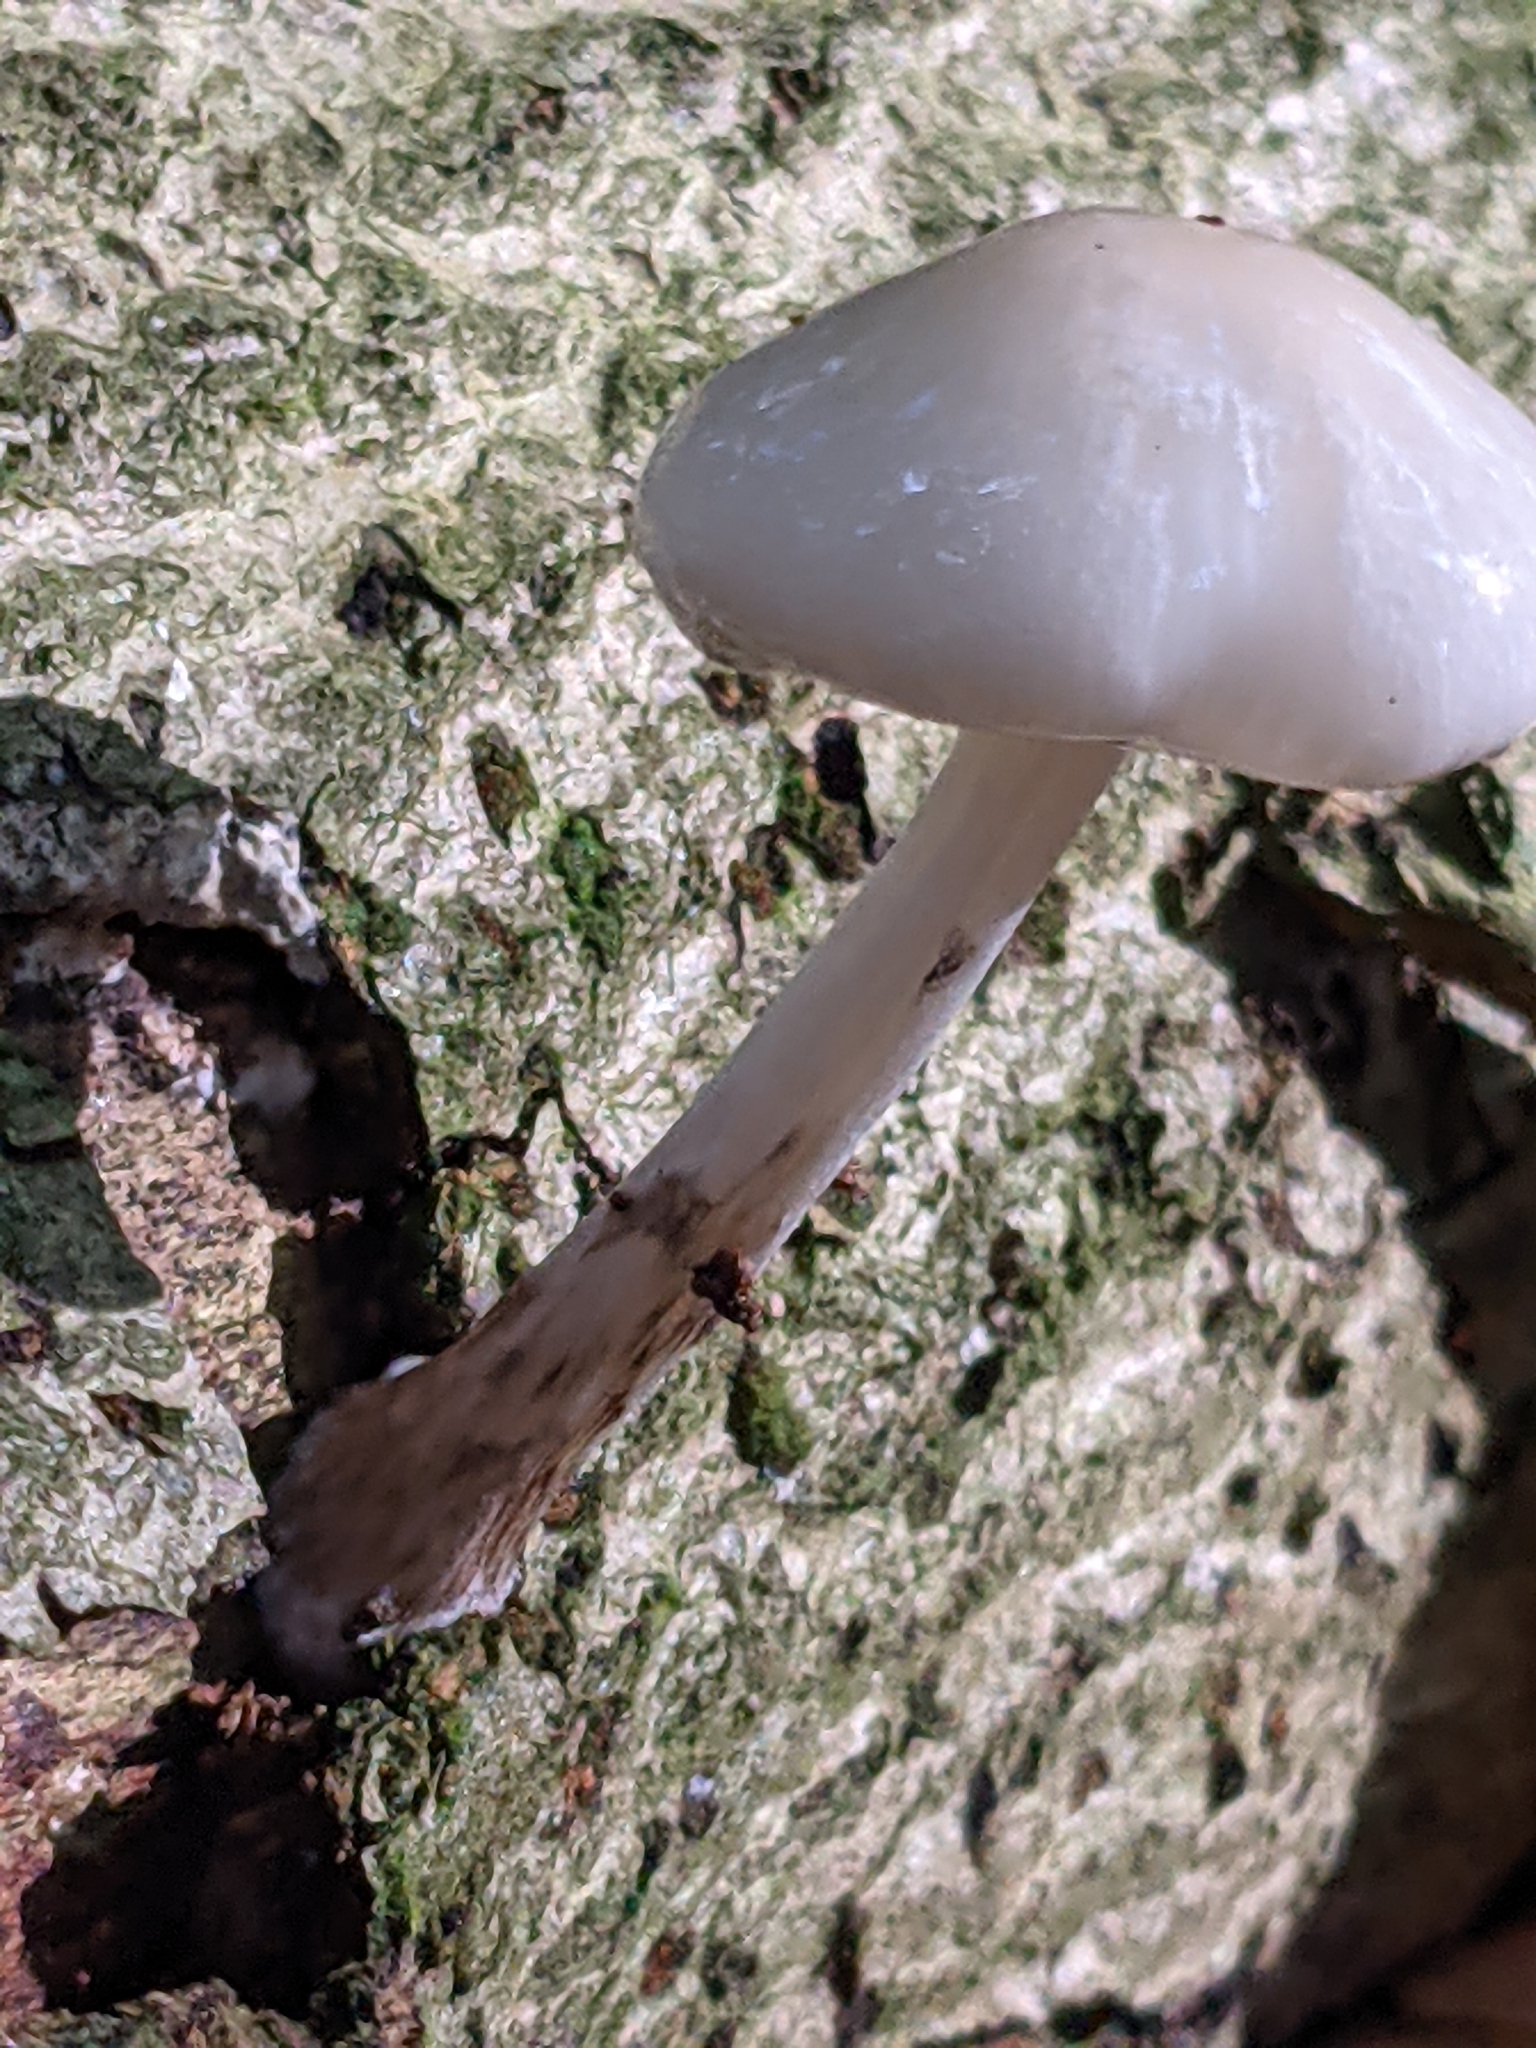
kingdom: Fungi
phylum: Basidiomycota
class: Agaricomycetes
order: Agaricales
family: Physalacriaceae
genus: Mucidula
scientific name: Mucidula mucida
